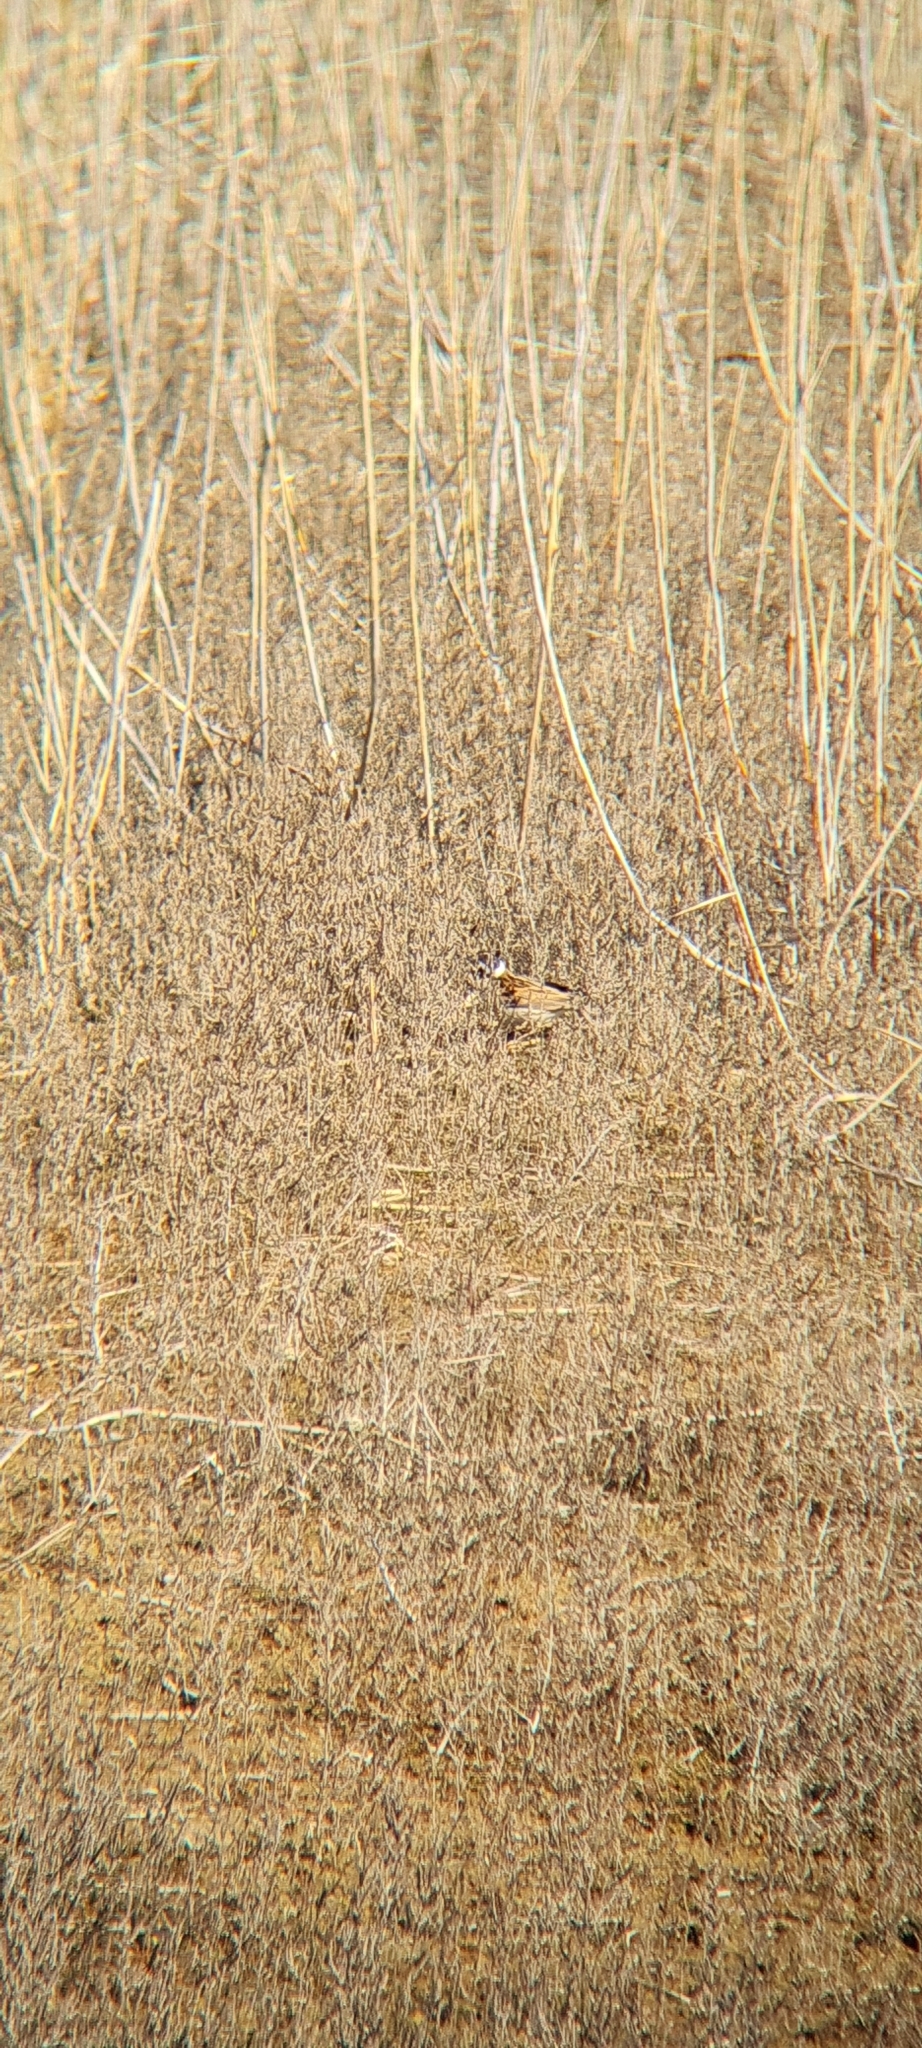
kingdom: Animalia
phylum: Chordata
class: Aves
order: Passeriformes
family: Emberizidae
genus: Emberiza
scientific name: Emberiza schoeniclus
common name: Reed bunting
